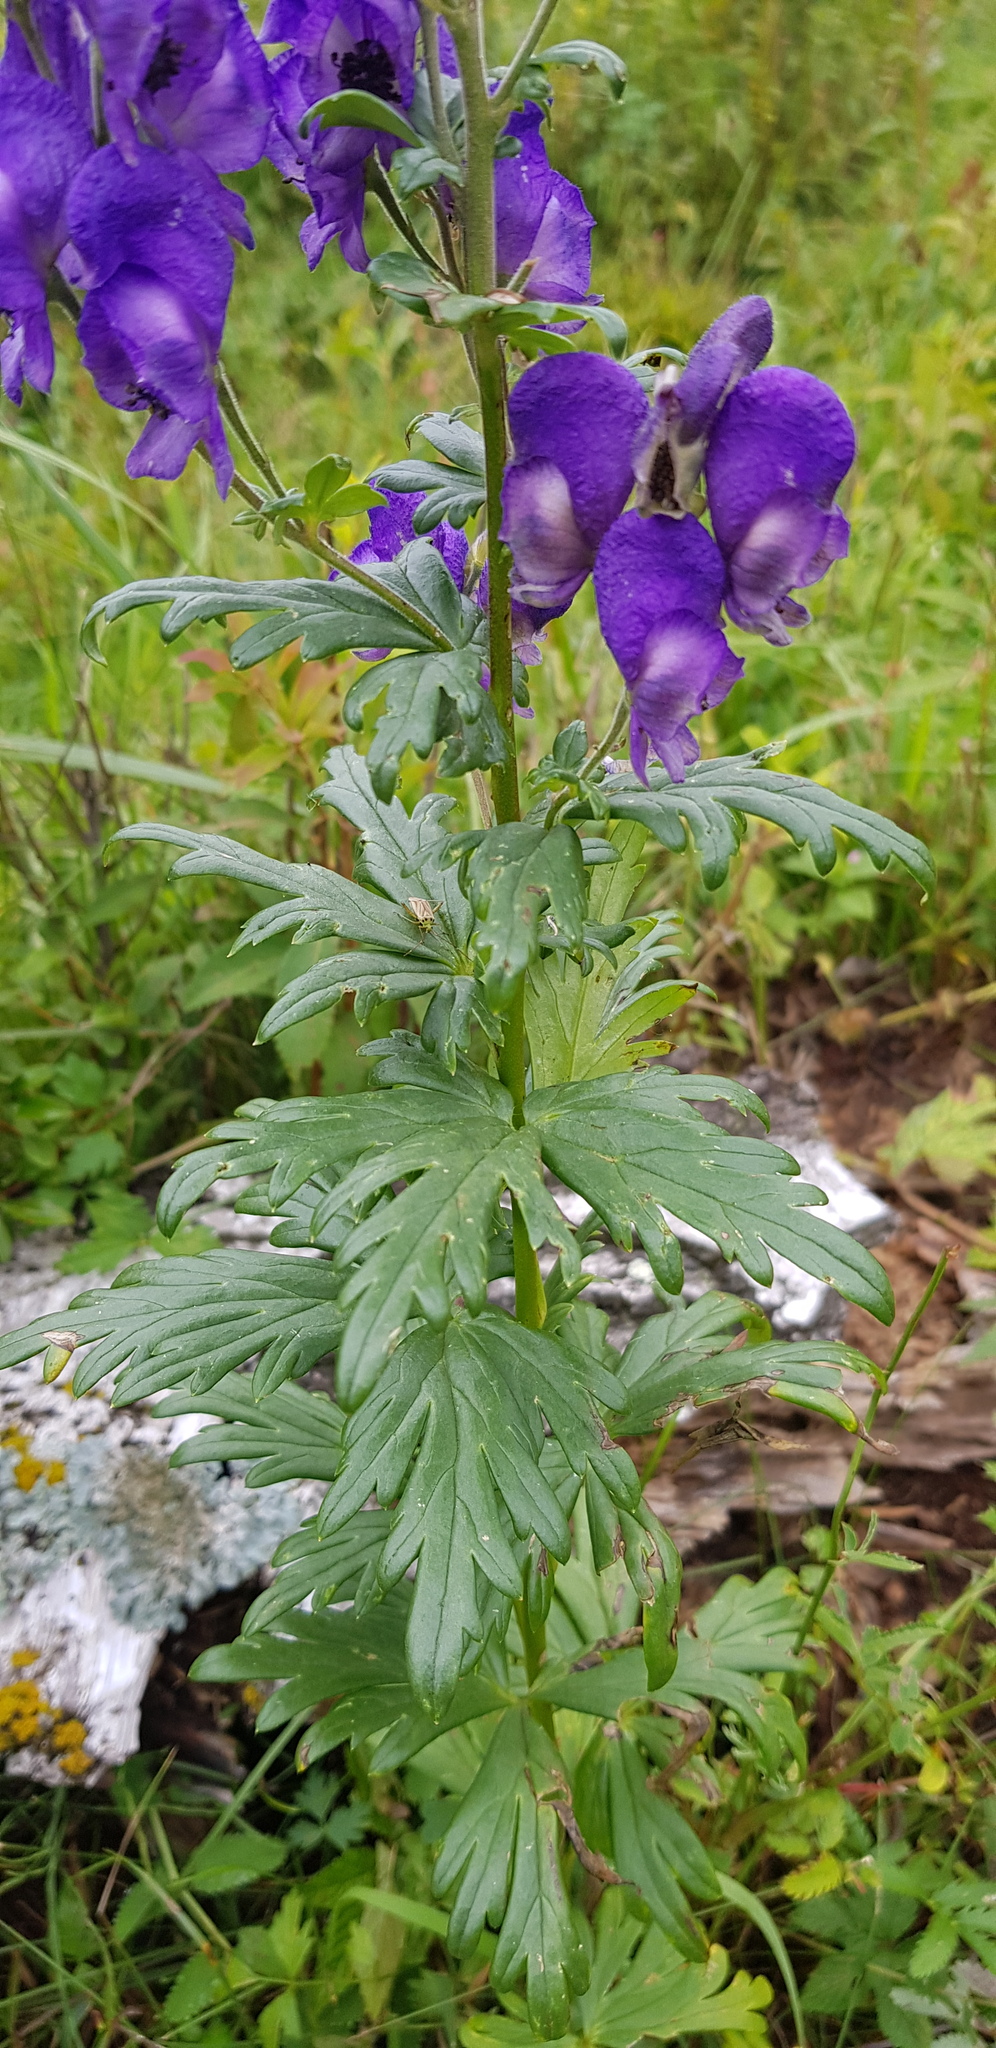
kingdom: Plantae
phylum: Tracheophyta
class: Magnoliopsida
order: Ranunculales
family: Ranunculaceae
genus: Aconitum
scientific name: Aconitum baicalense
